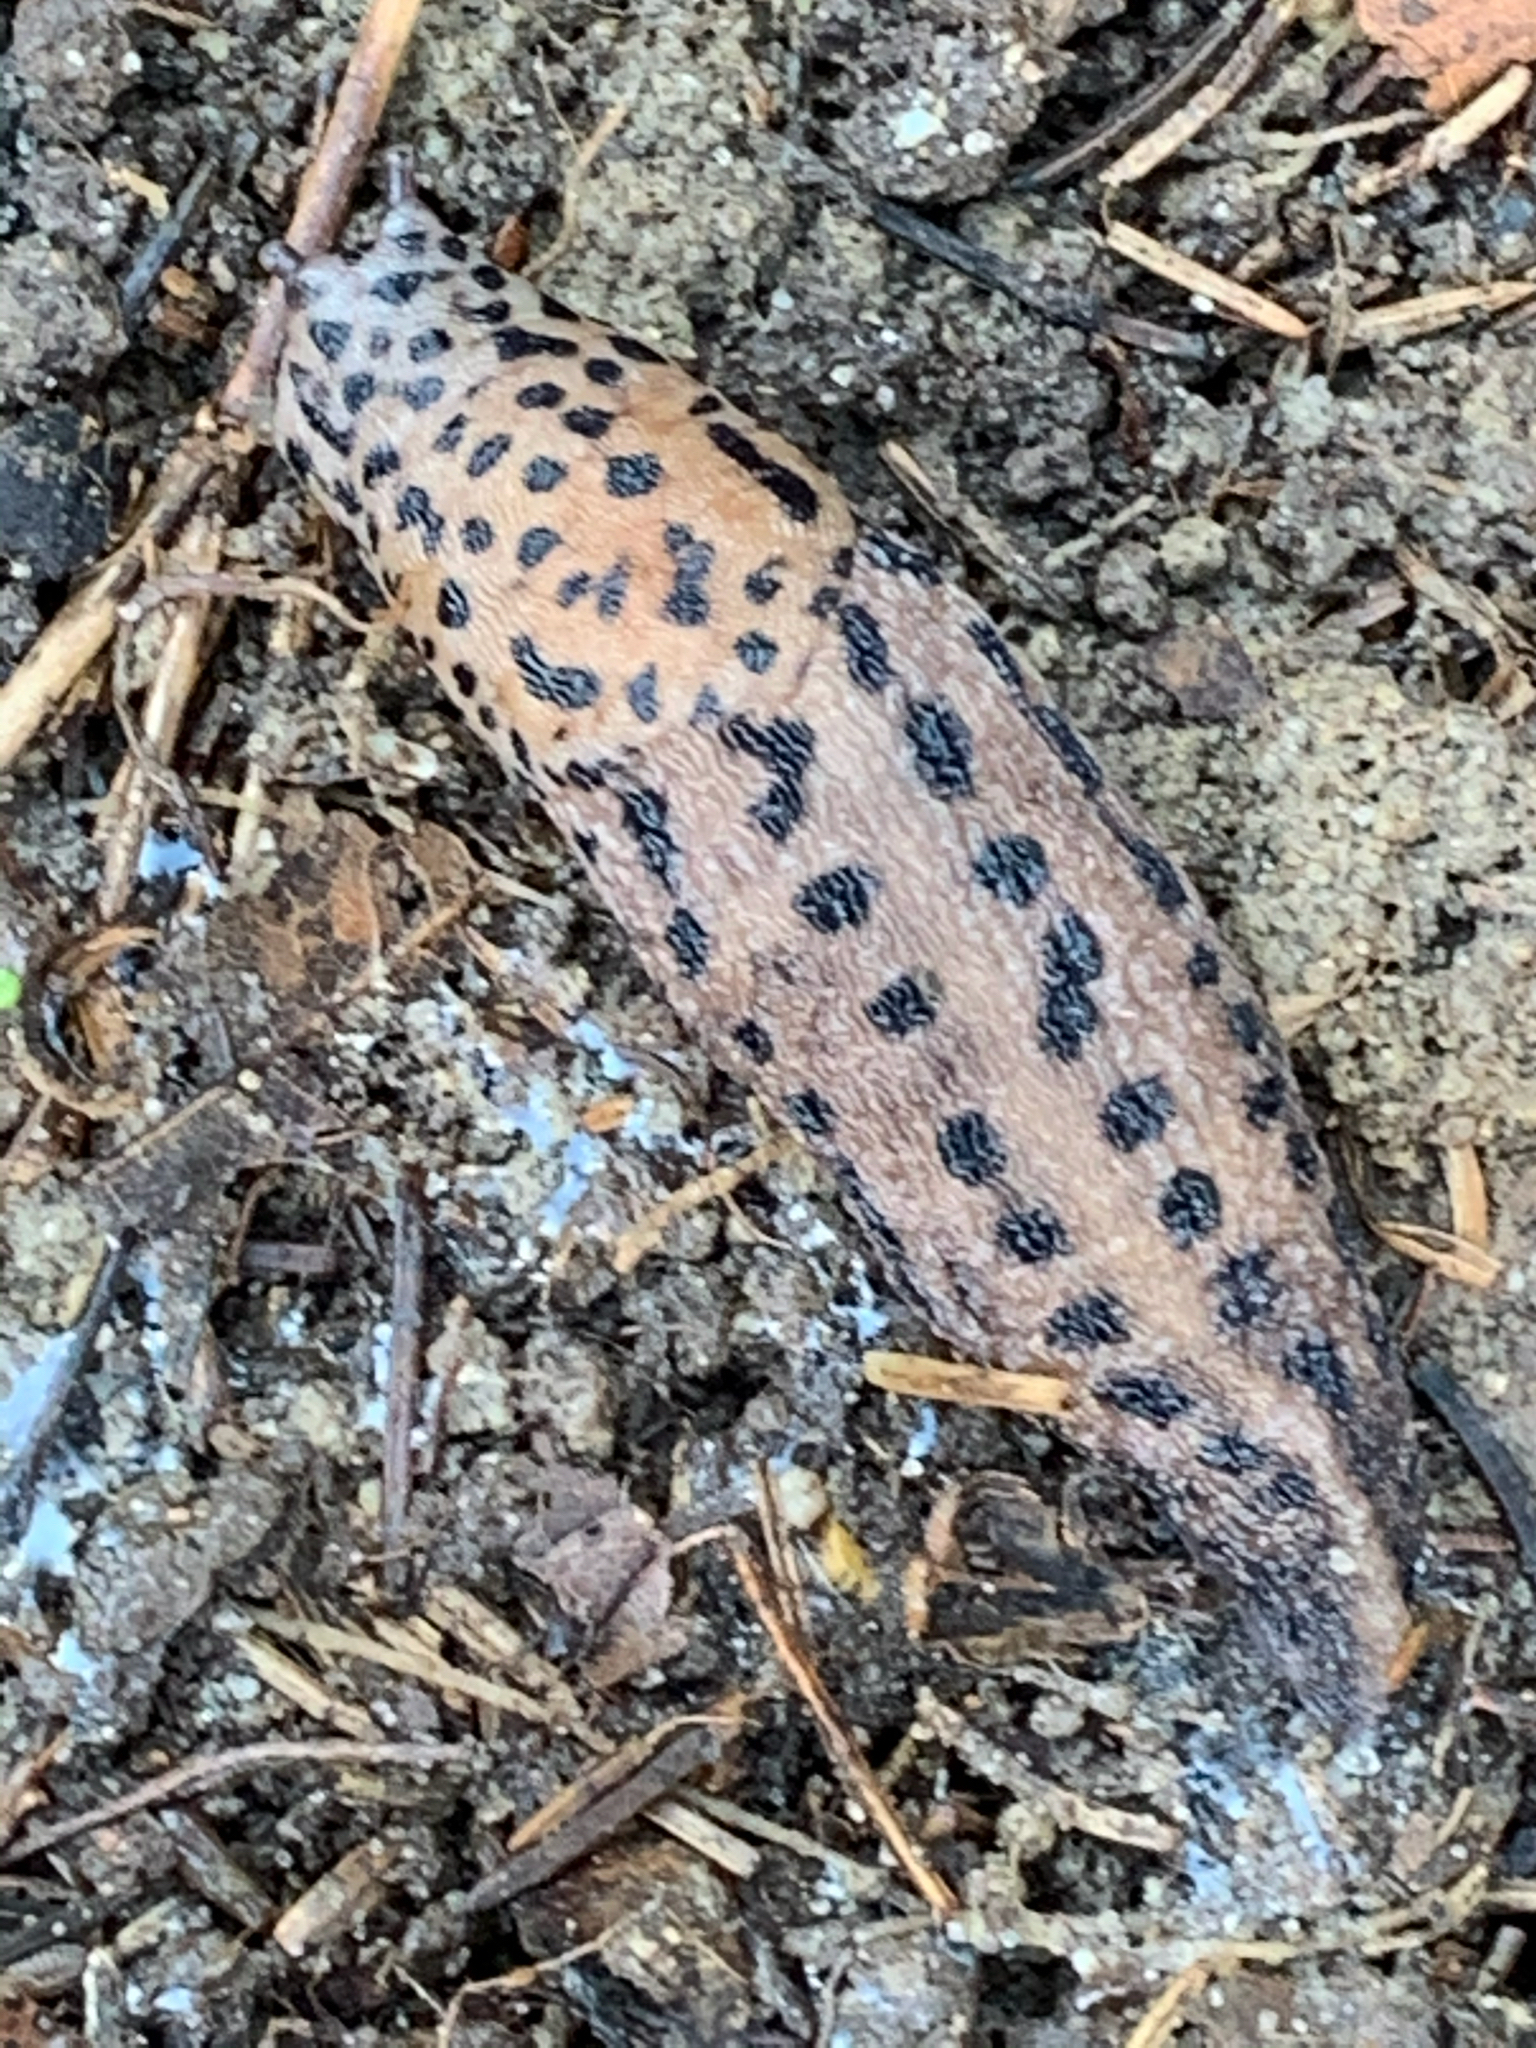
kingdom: Animalia
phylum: Mollusca
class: Gastropoda
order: Stylommatophora
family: Limacidae
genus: Limax
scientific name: Limax maximus
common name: Great grey slug
